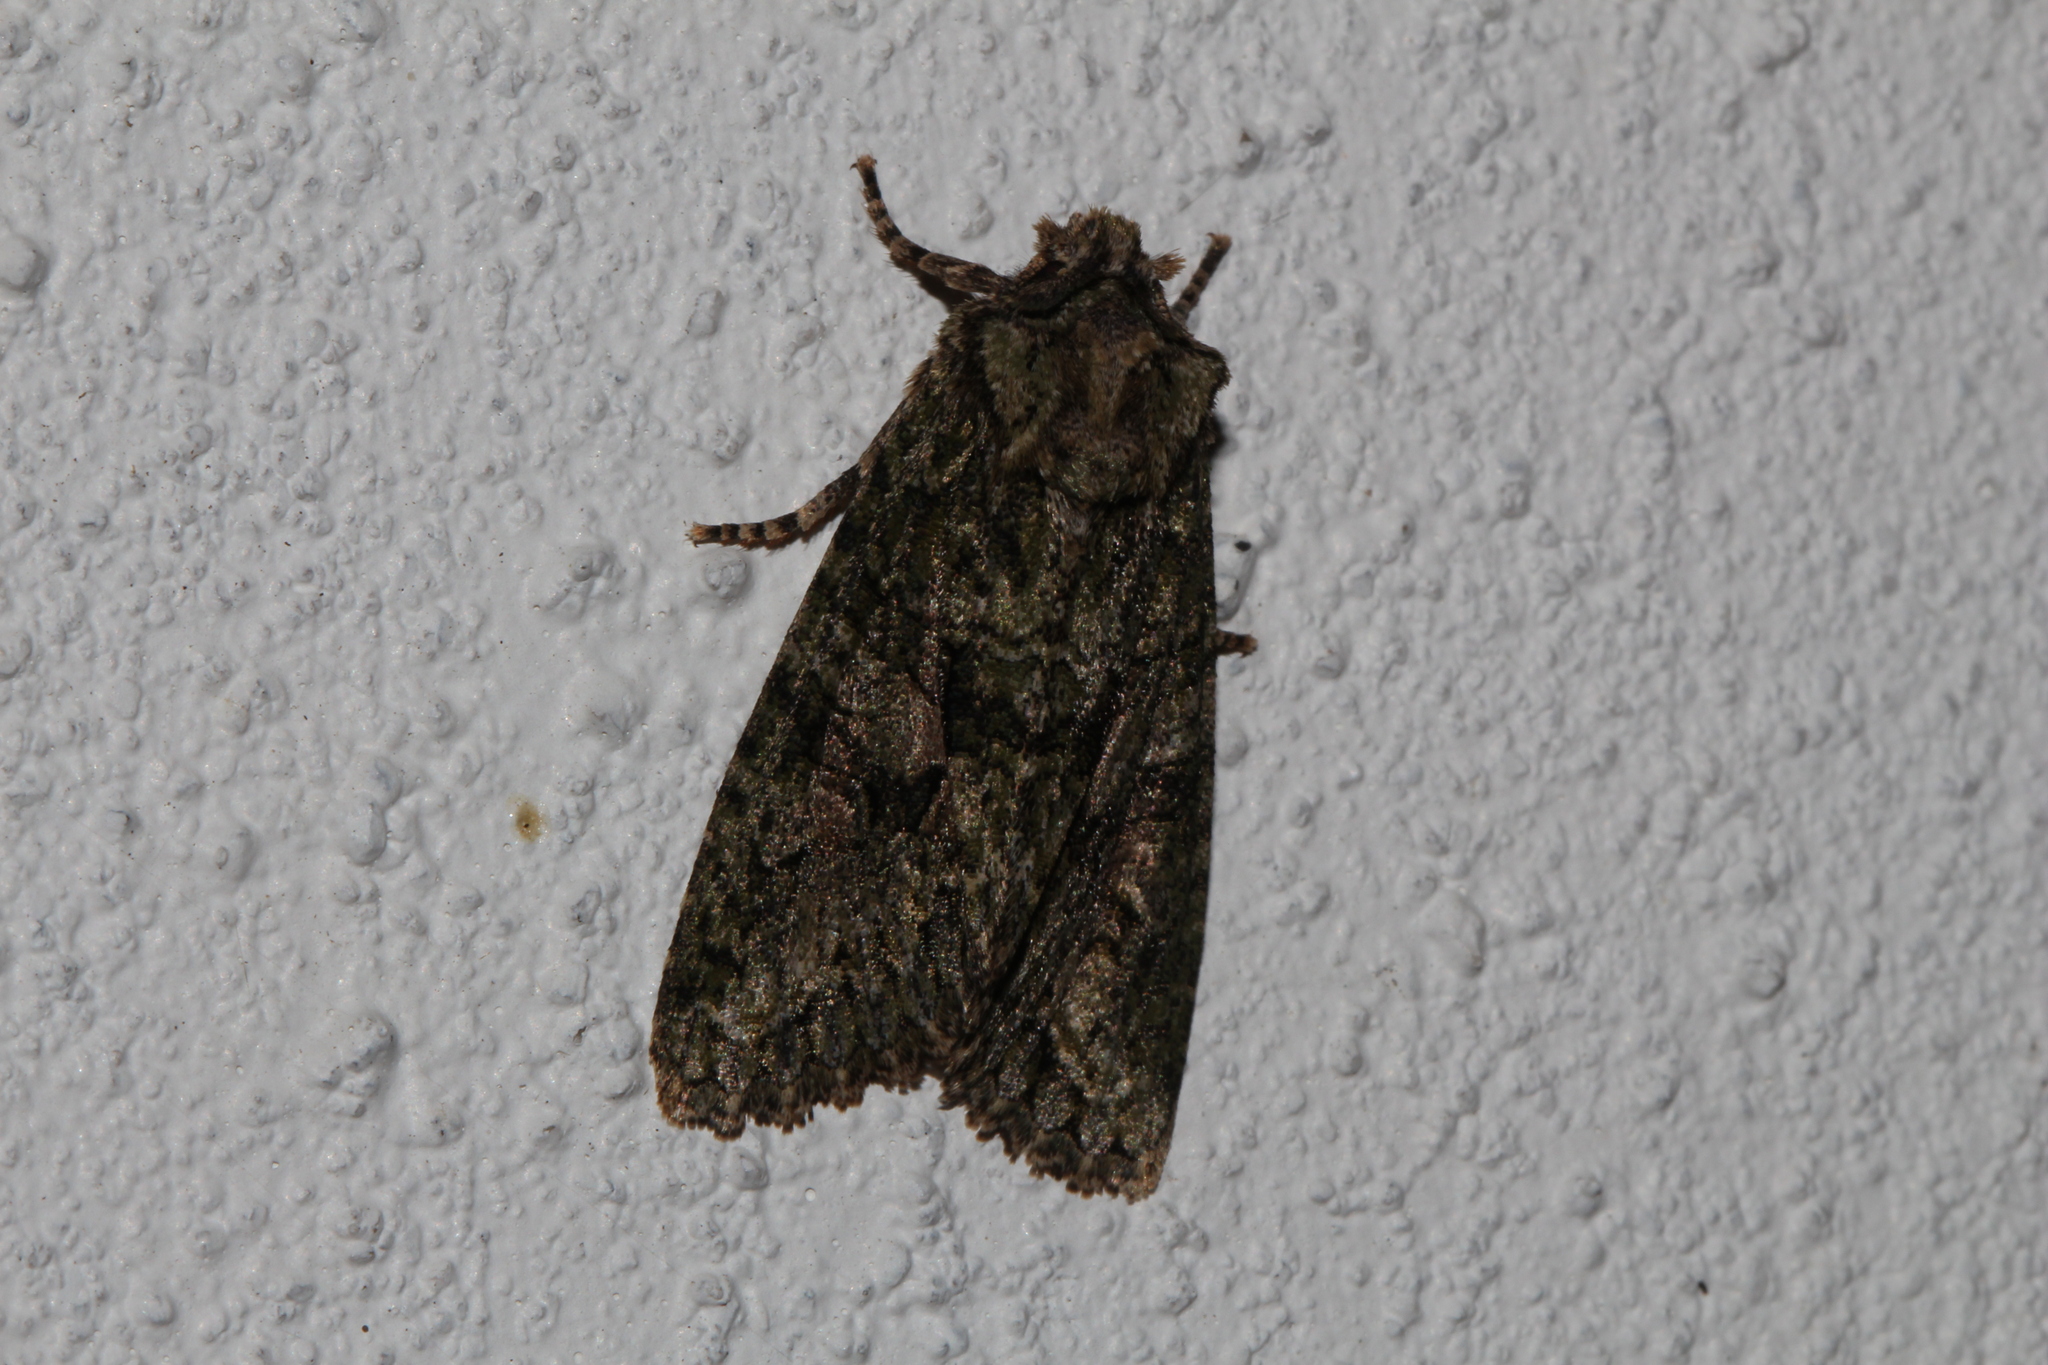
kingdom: Animalia
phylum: Arthropoda
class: Insecta
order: Lepidoptera
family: Noctuidae
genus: Dryobotodes
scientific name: Dryobotodes eremita
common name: Brindled green
